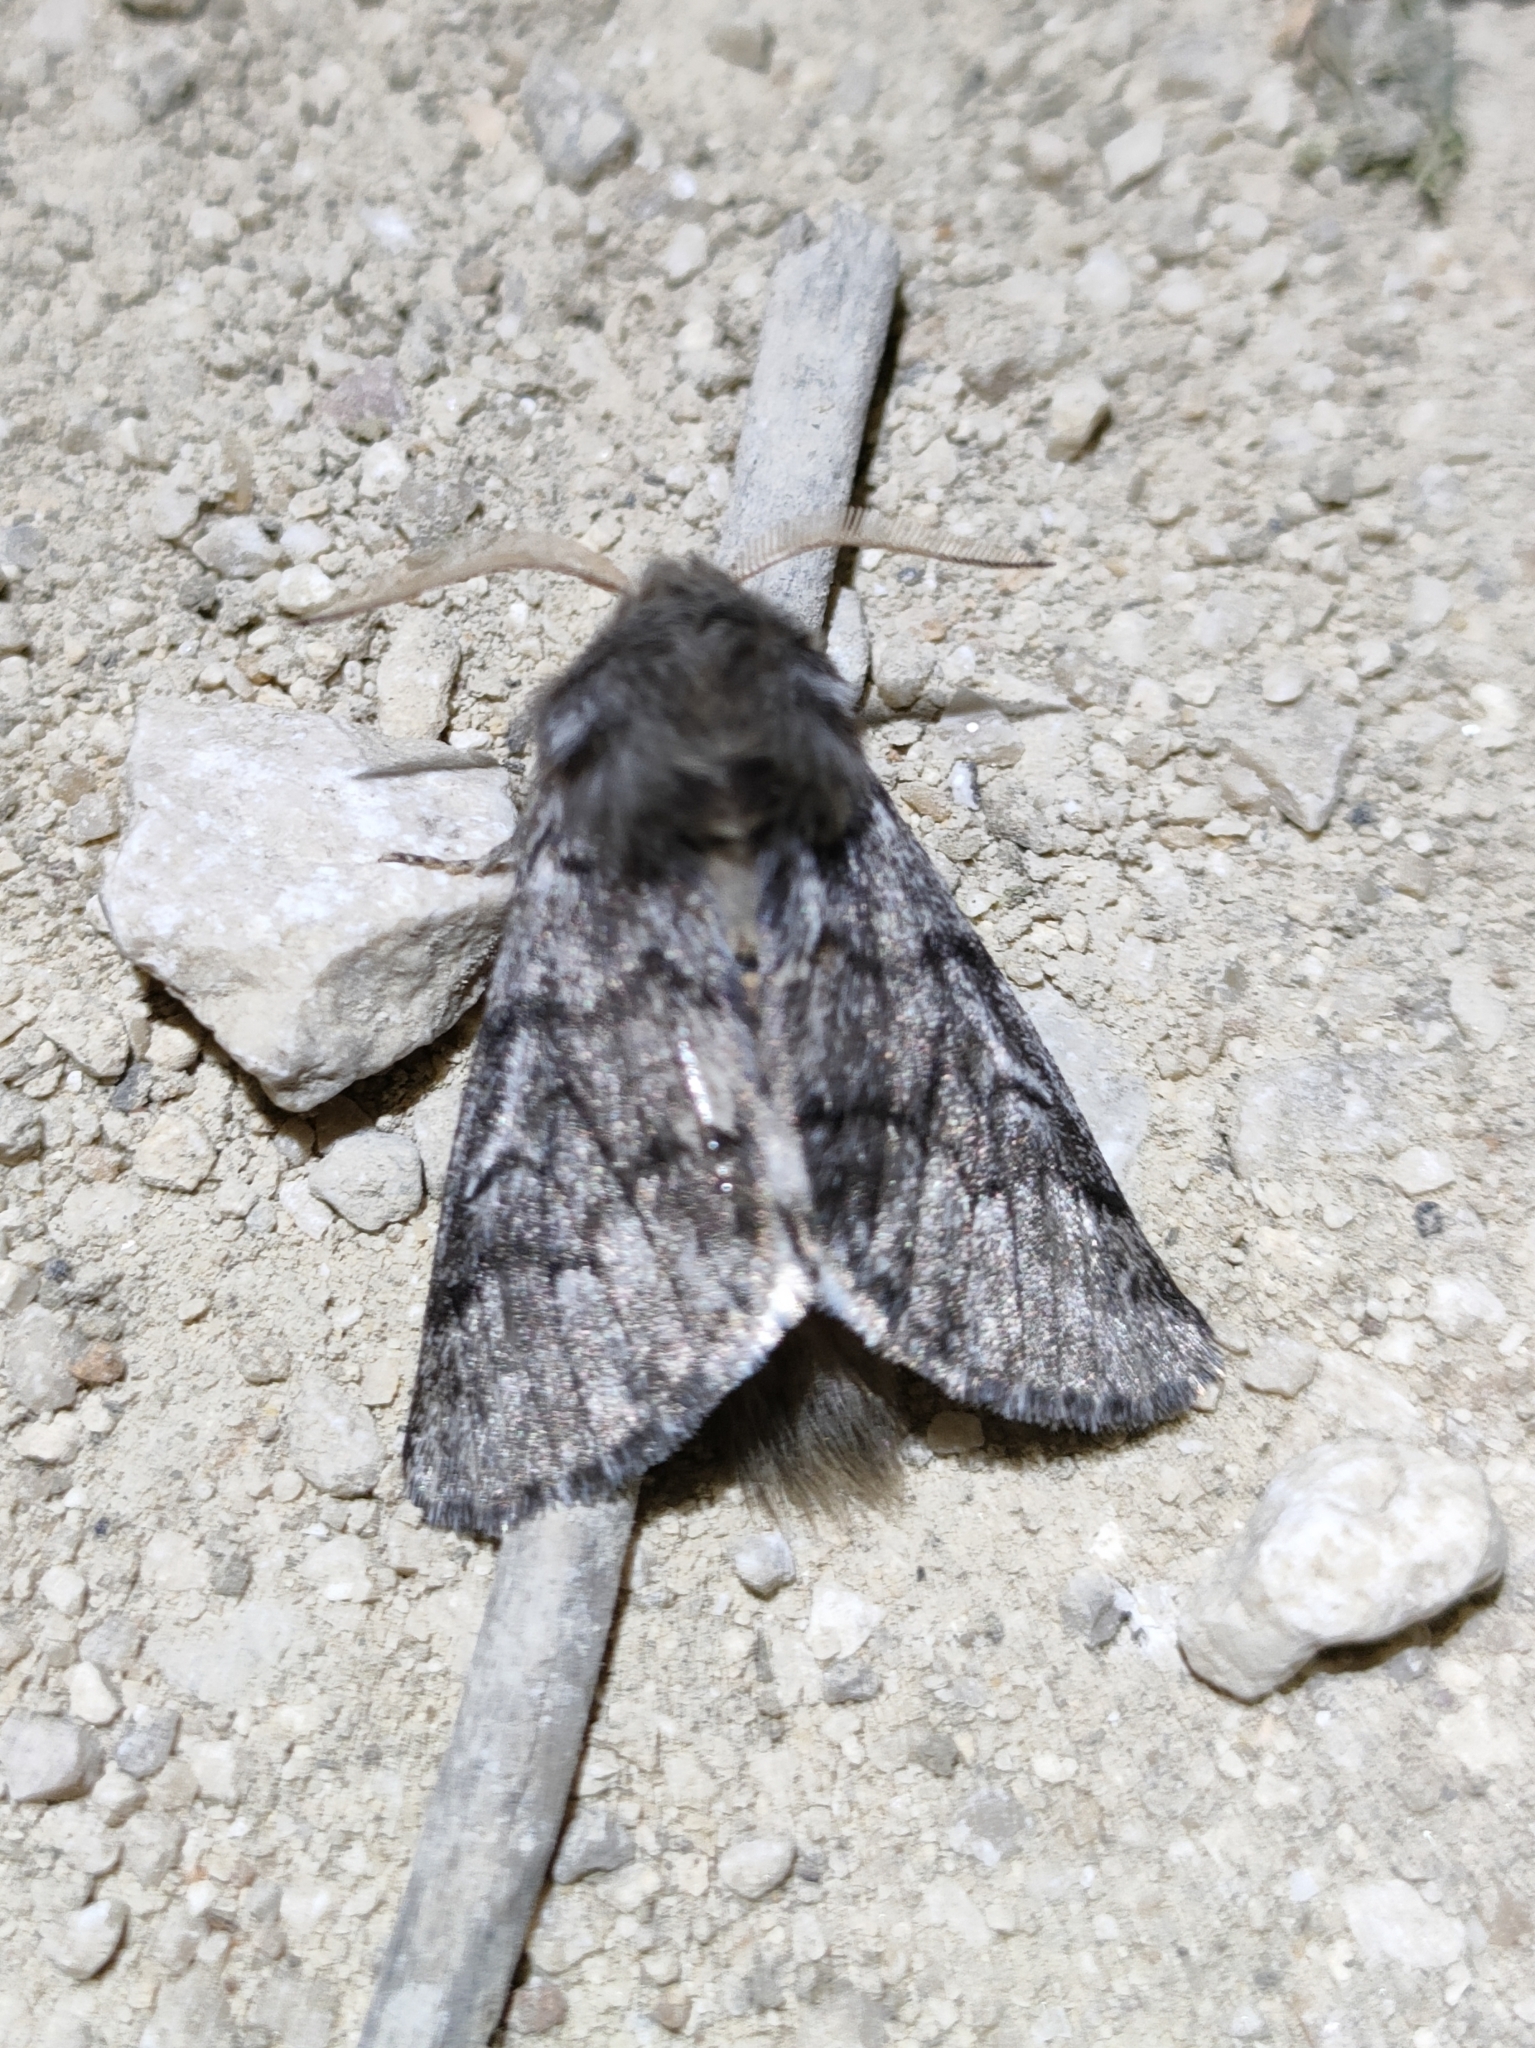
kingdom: Animalia
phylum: Arthropoda
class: Insecta
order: Lepidoptera
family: Notodontidae
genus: Thaumetopoea
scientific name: Thaumetopoea pityocampa
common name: Pine processionary
